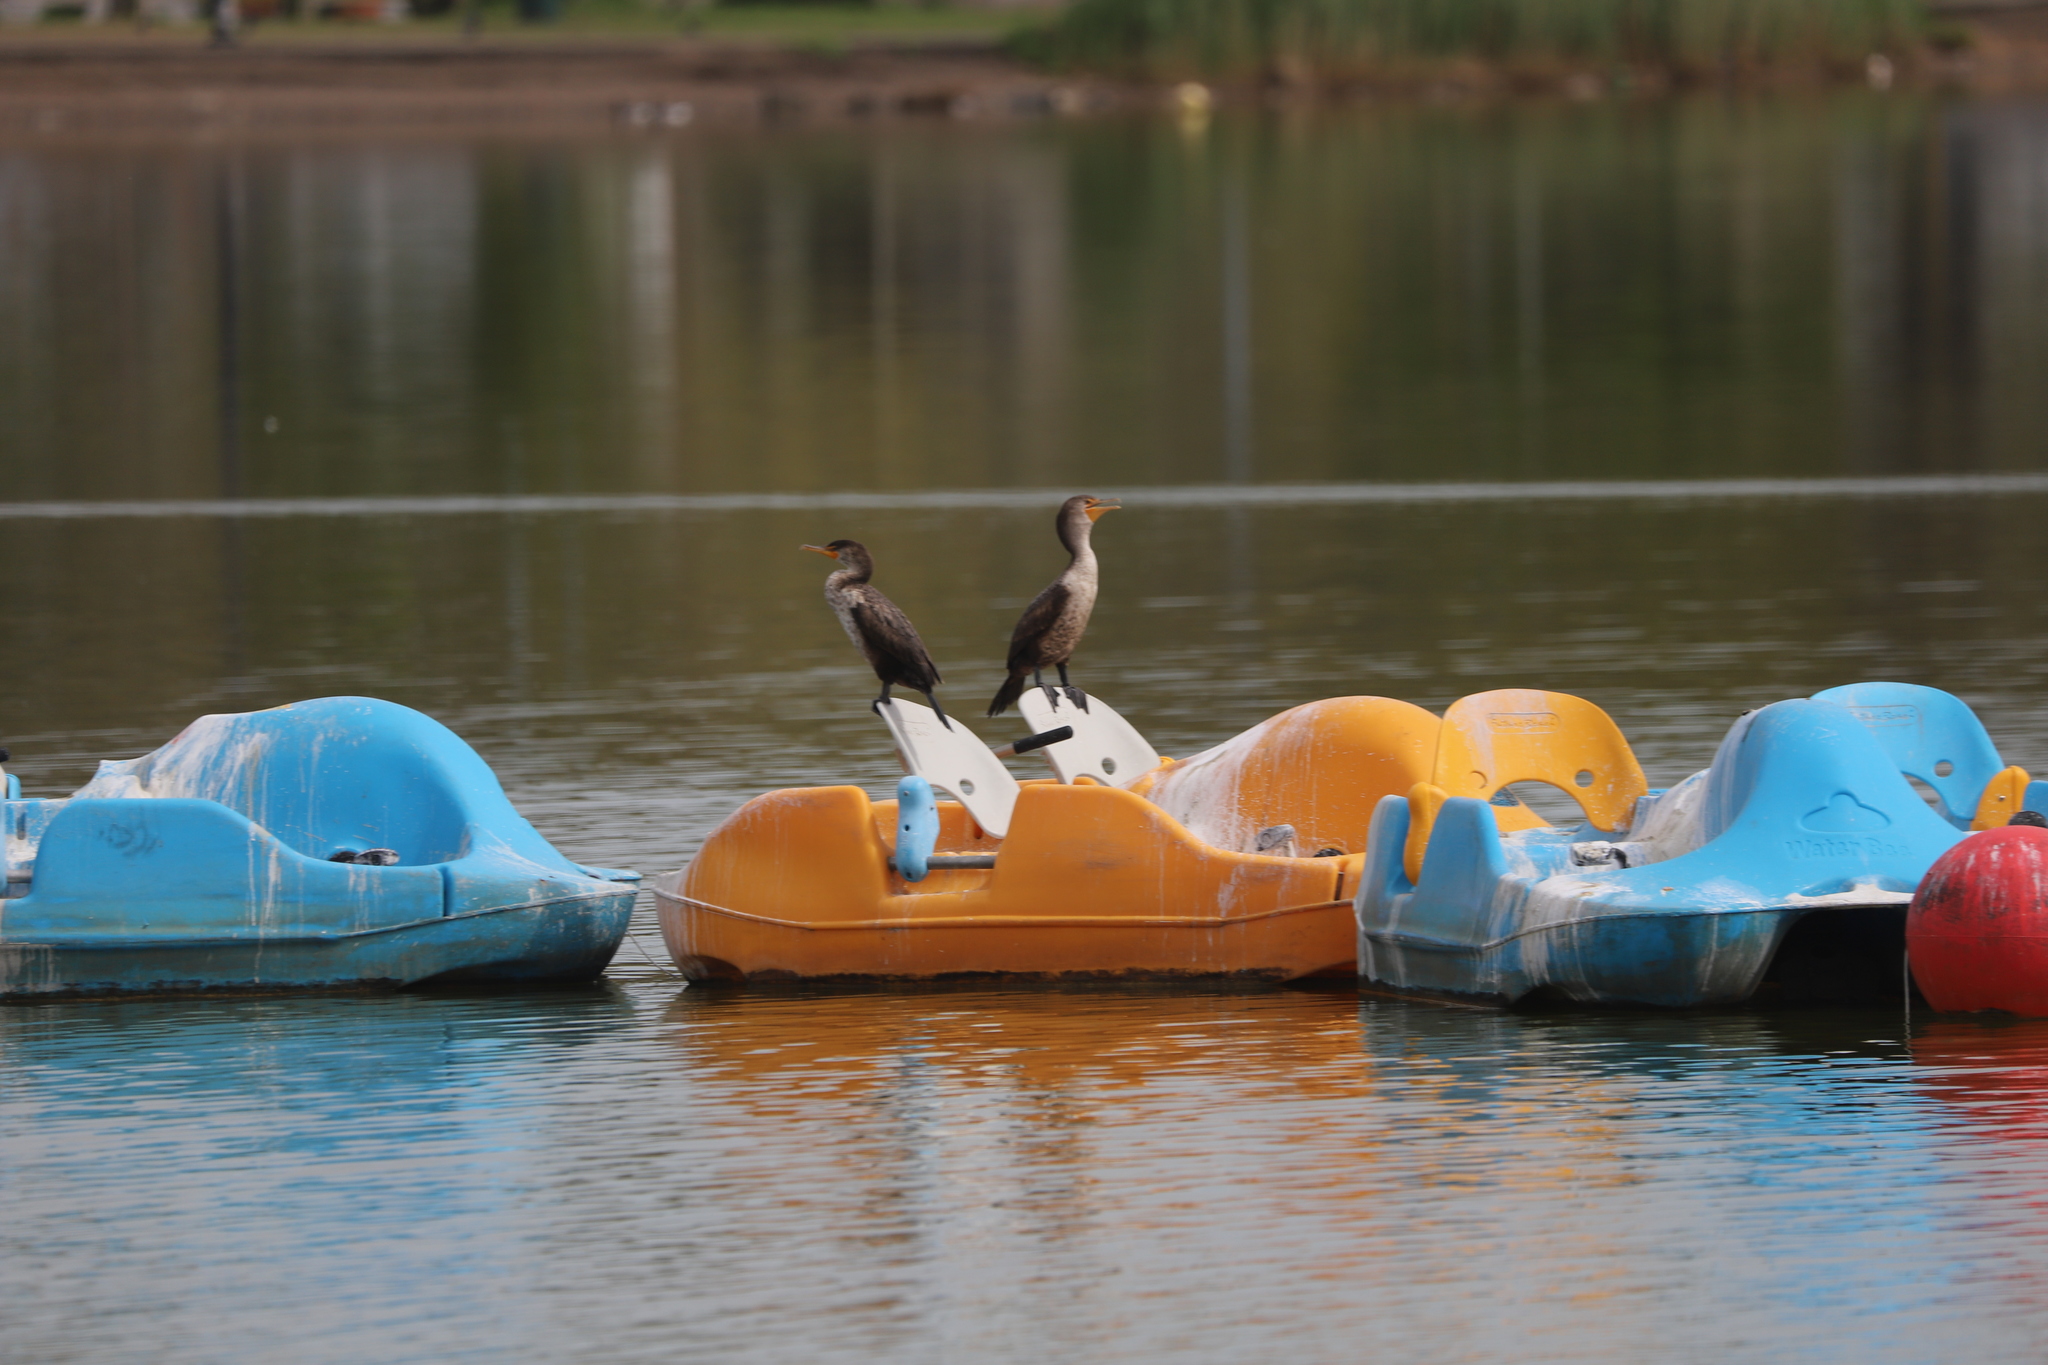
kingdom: Animalia
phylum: Chordata
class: Aves
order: Suliformes
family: Phalacrocoracidae
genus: Phalacrocorax
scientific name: Phalacrocorax auritus
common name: Double-crested cormorant
